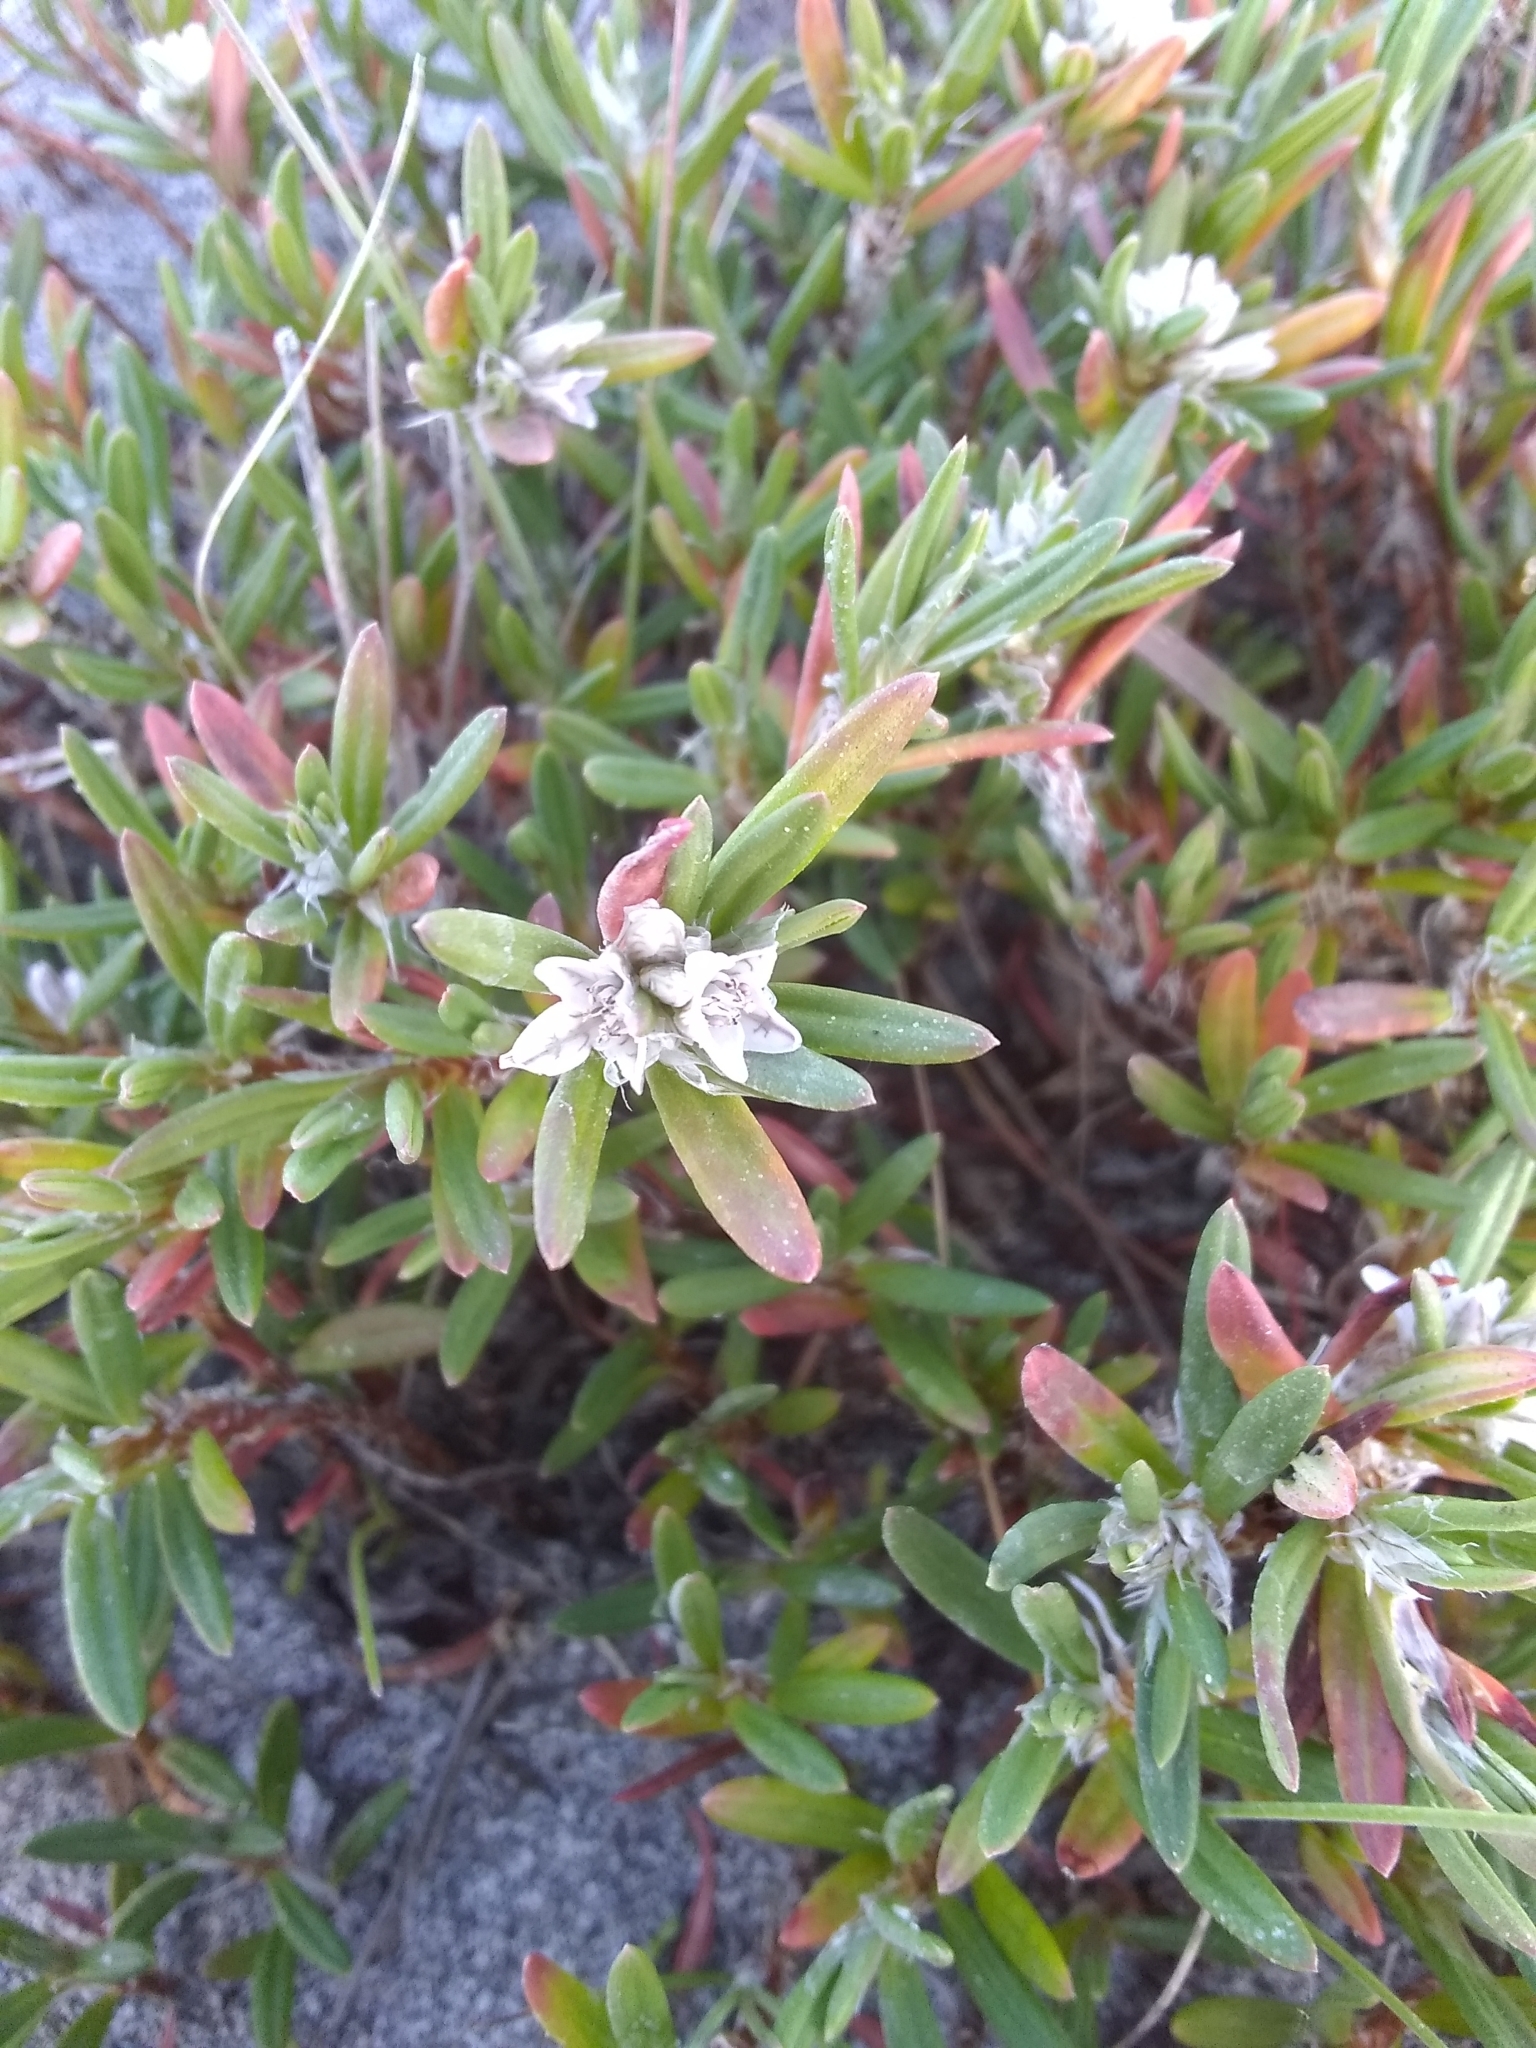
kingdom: Plantae
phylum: Tracheophyta
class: Magnoliopsida
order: Caryophyllales
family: Polygonaceae
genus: Polygonum
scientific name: Polygonum paronychia
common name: Dune knotweed
